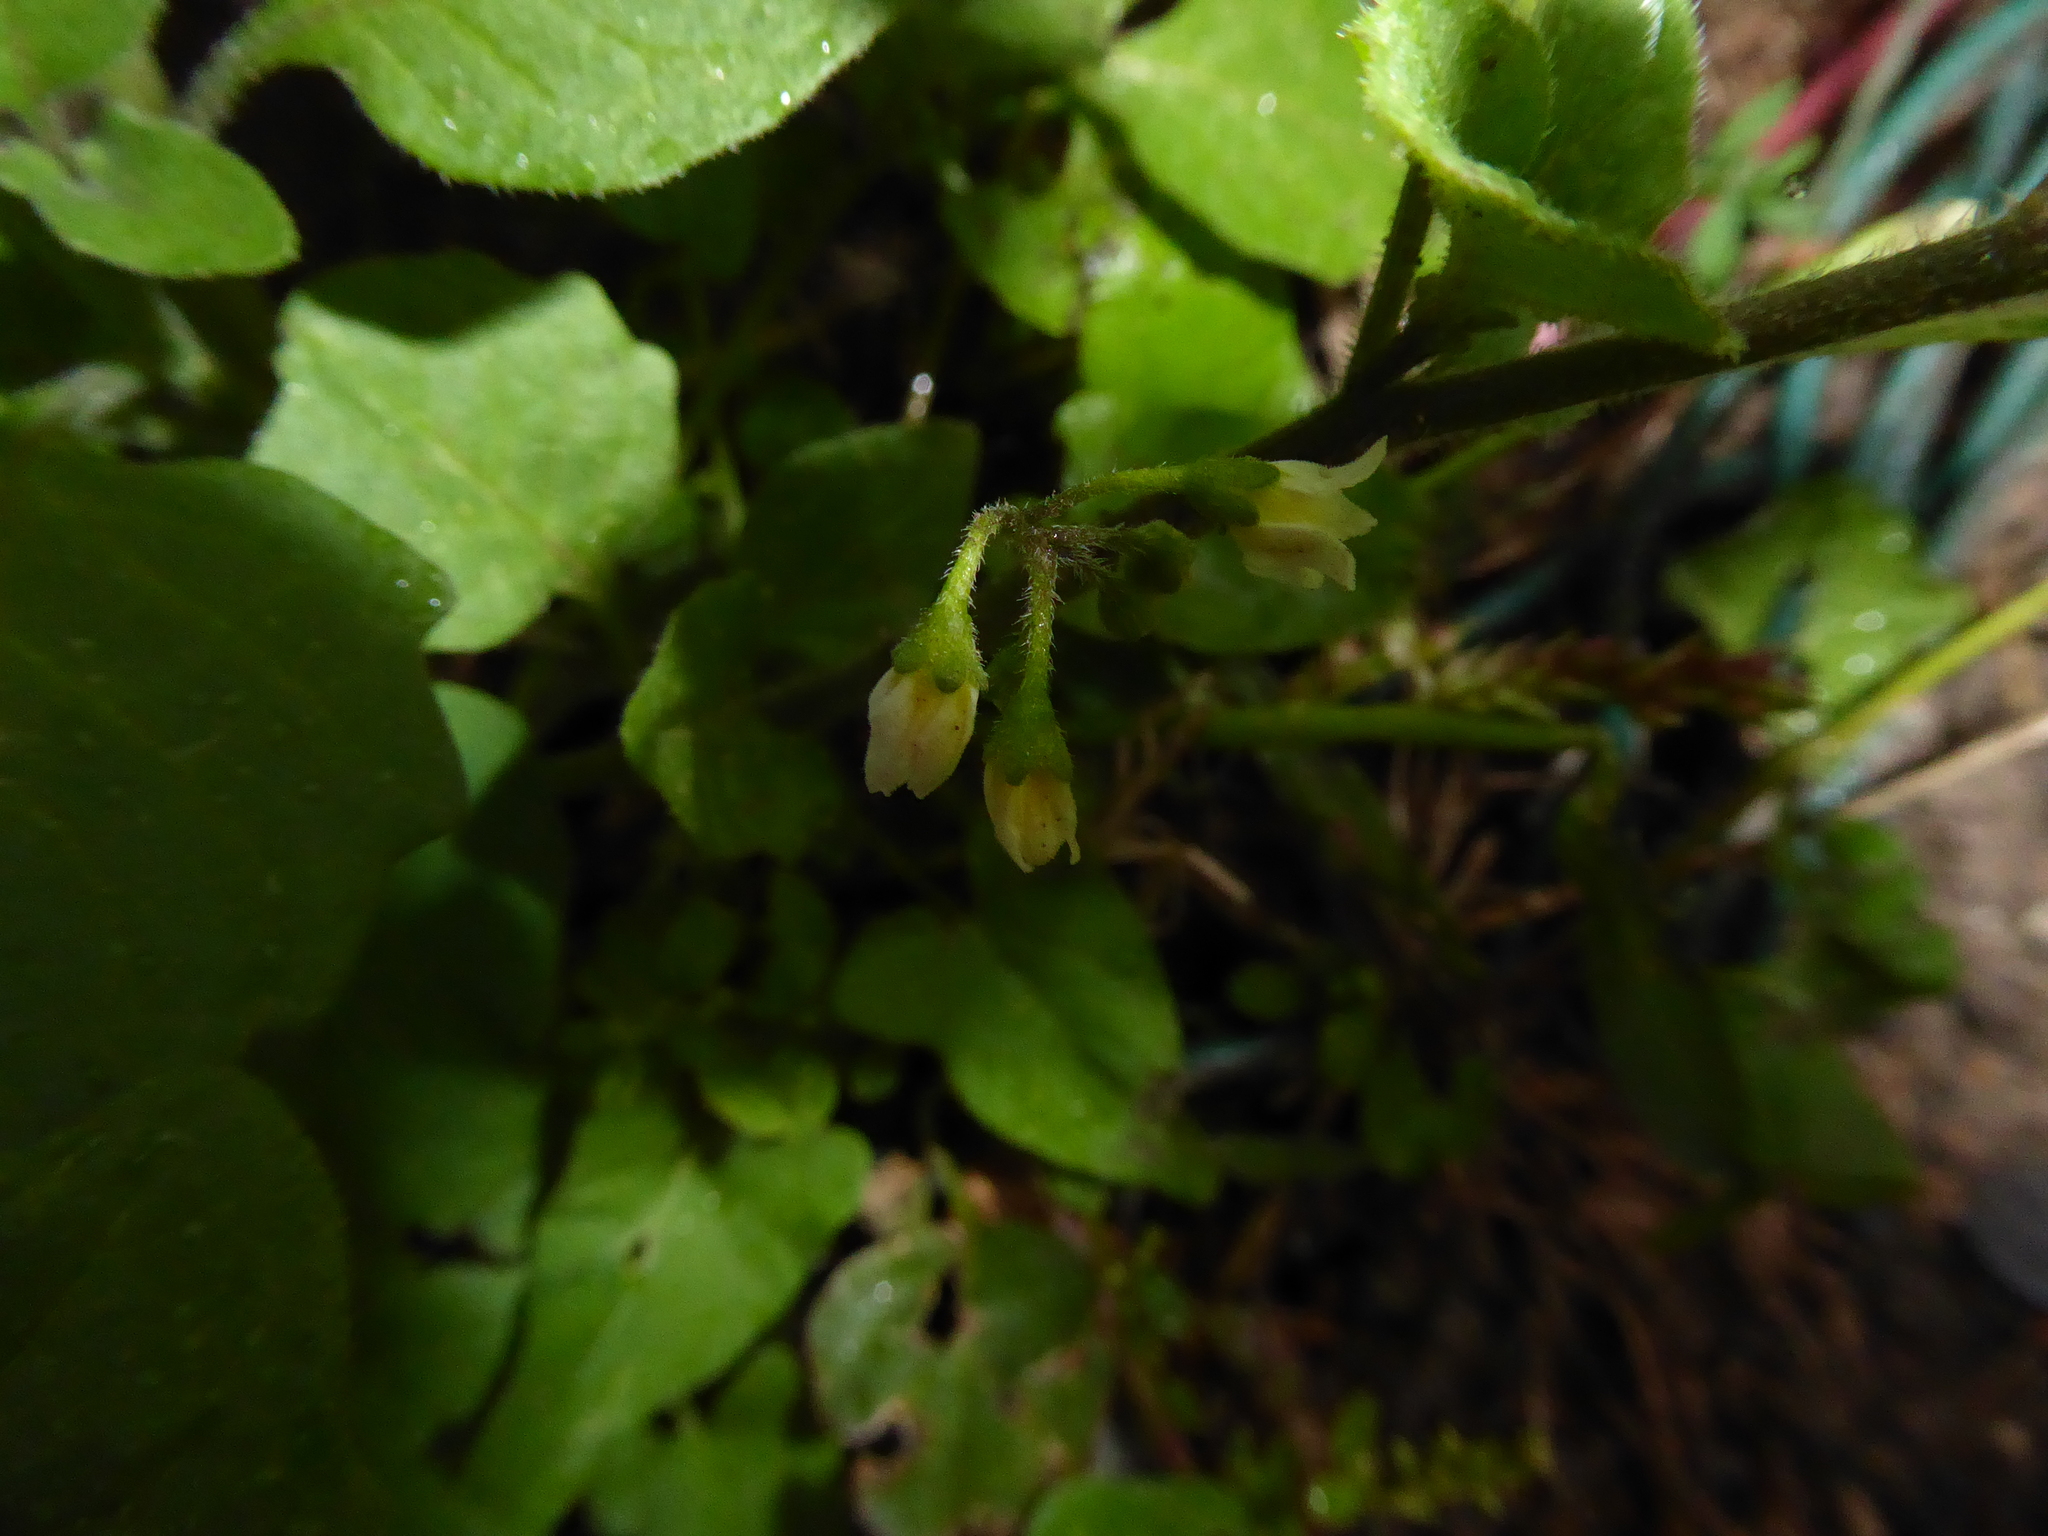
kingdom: Plantae
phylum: Tracheophyta
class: Magnoliopsida
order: Solanales
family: Solanaceae
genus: Solanum
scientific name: Solanum nigrum
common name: Black nightshade
